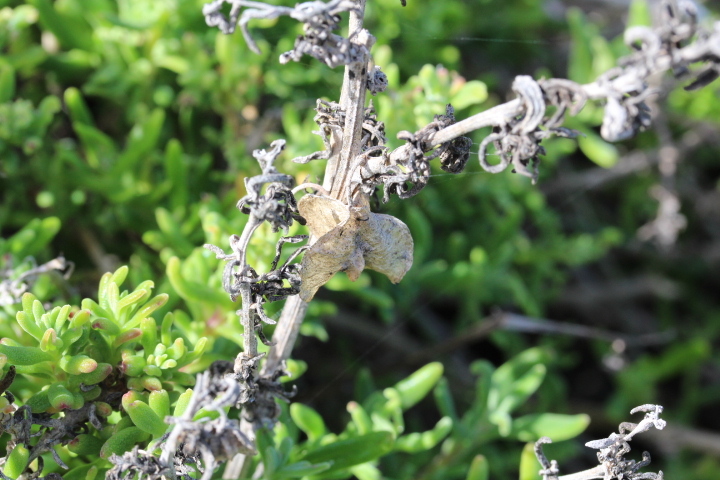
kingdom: Plantae
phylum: Tracheophyta
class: Magnoliopsida
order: Caryophyllales
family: Aizoaceae
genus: Tetragonia
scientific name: Tetragonia fruticosa
